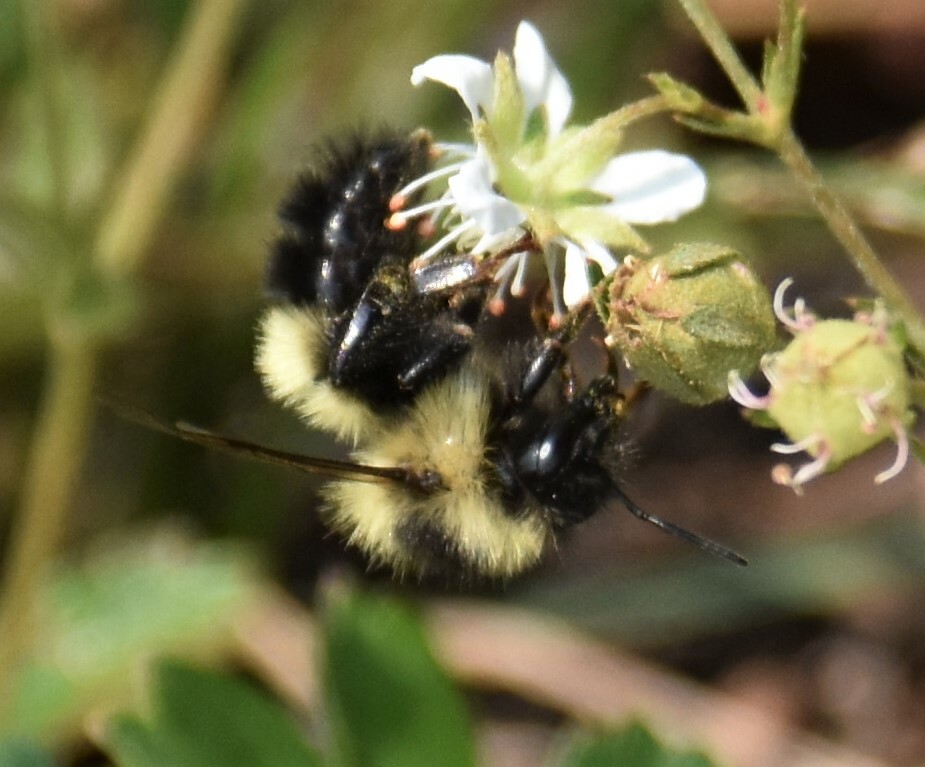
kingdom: Animalia
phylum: Arthropoda
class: Insecta
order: Hymenoptera
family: Apidae
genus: Bombus
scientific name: Bombus sandersoni
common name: Sanderson bumble bee
